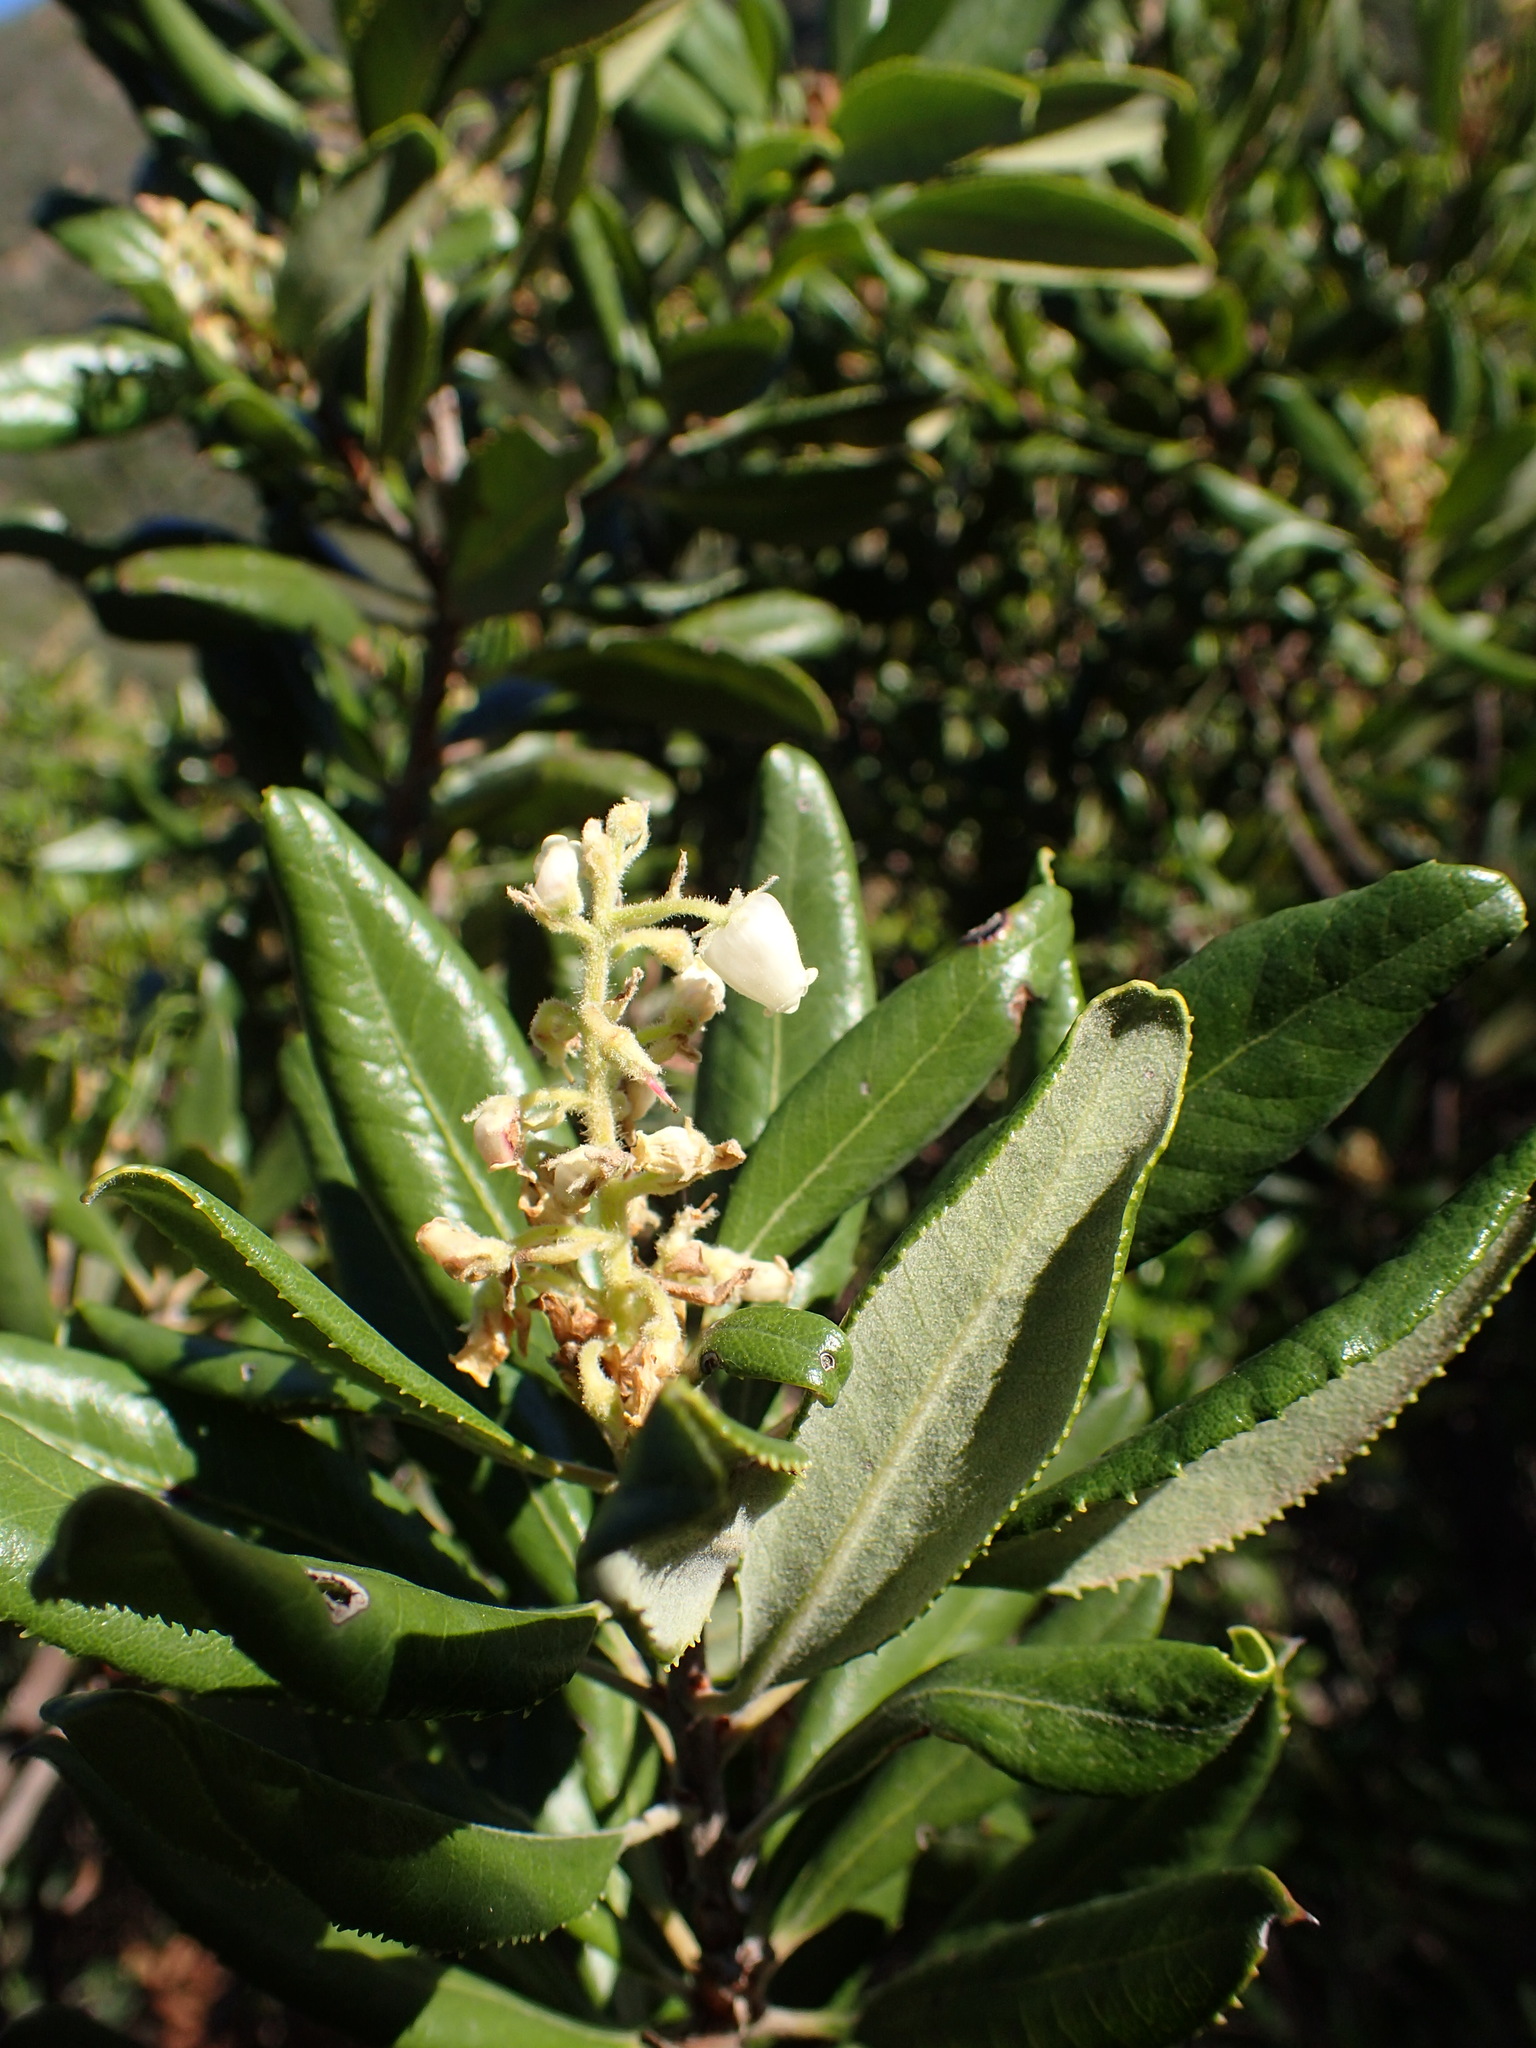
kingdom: Plantae
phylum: Tracheophyta
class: Magnoliopsida
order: Ericales
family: Ericaceae
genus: Comarostaphylis
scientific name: Comarostaphylis diversifolia
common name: Summer-holly
